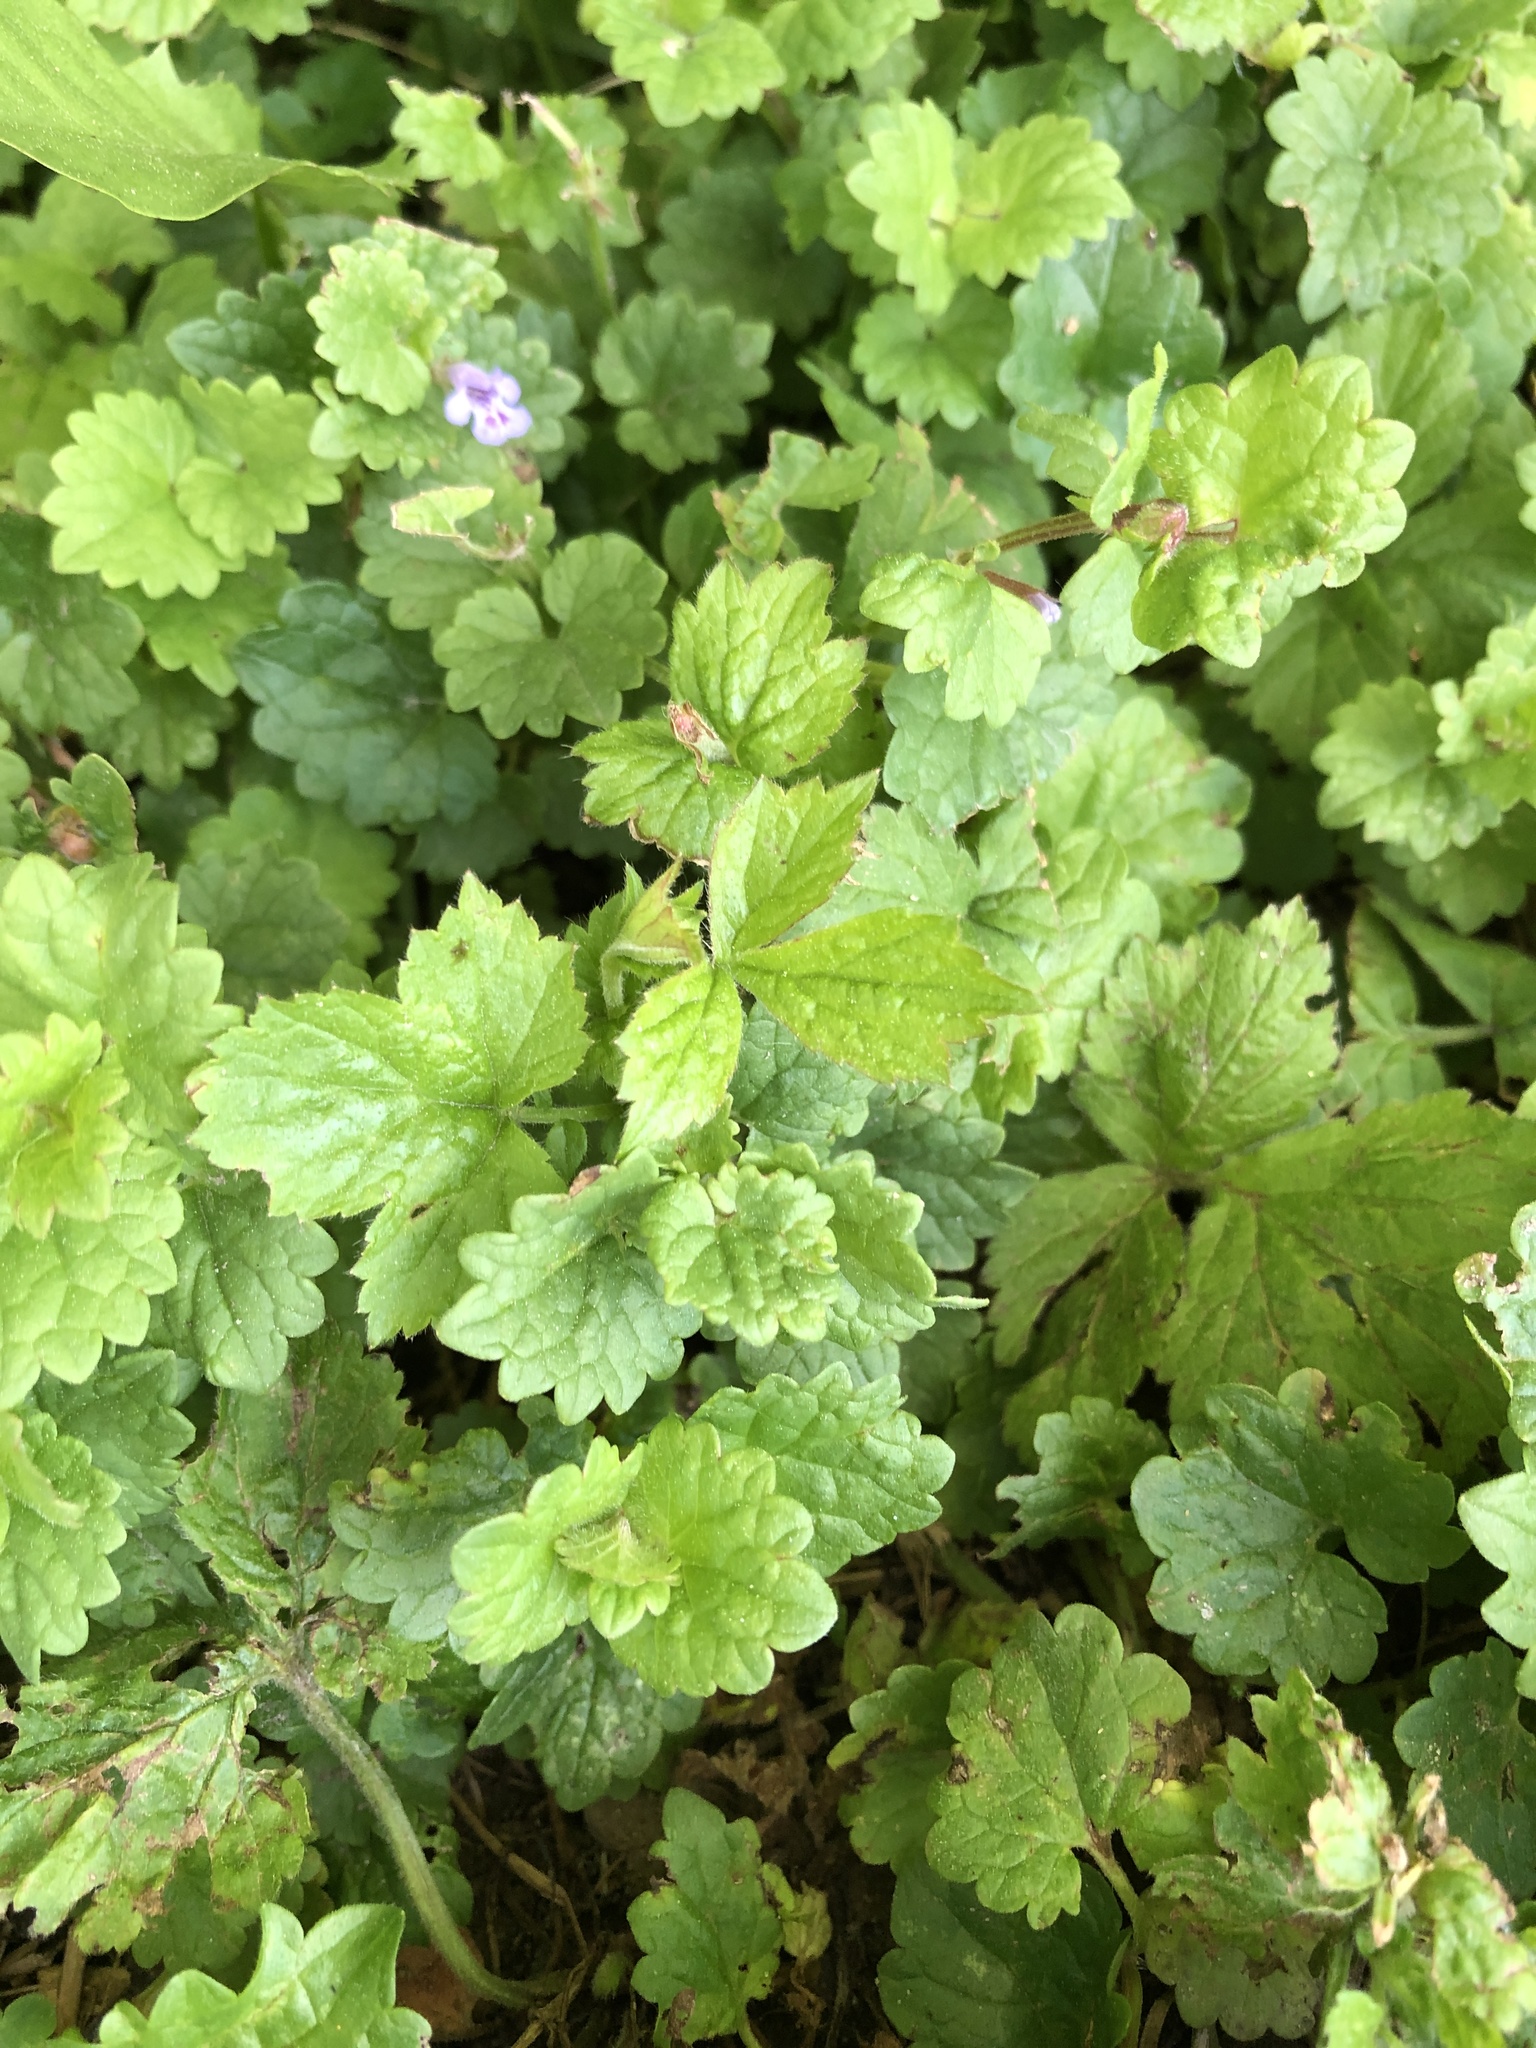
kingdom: Plantae
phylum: Tracheophyta
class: Magnoliopsida
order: Lamiales
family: Lamiaceae
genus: Glechoma
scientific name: Glechoma hederacea
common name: Ground ivy
